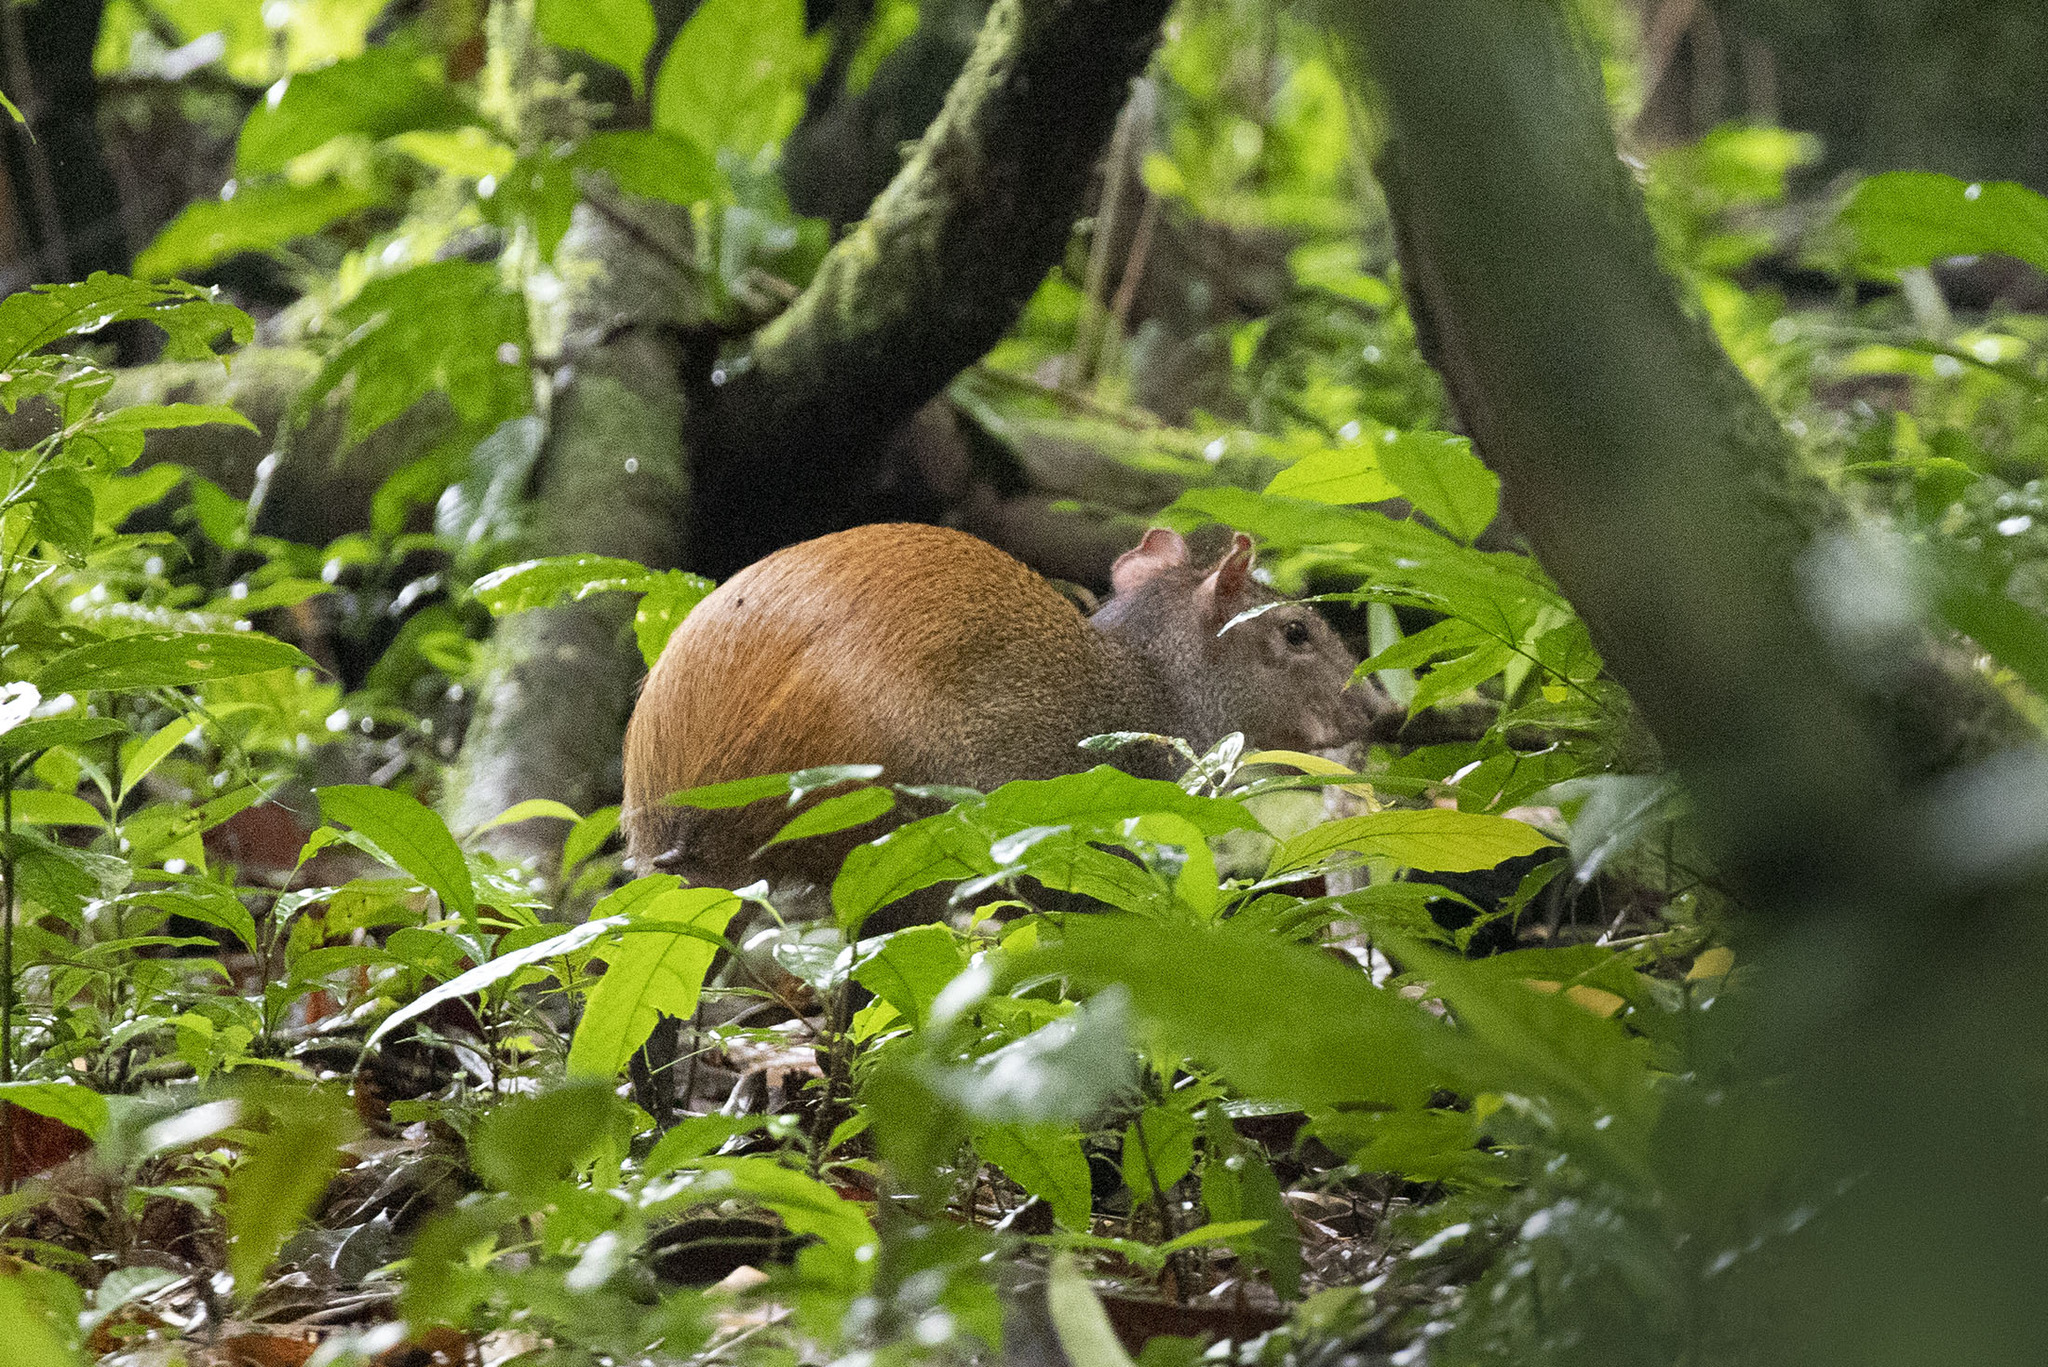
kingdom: Animalia
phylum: Chordata
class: Mammalia
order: Rodentia
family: Dasyproctidae
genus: Dasyprocta
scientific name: Dasyprocta leporina
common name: Red-rumped agouti
